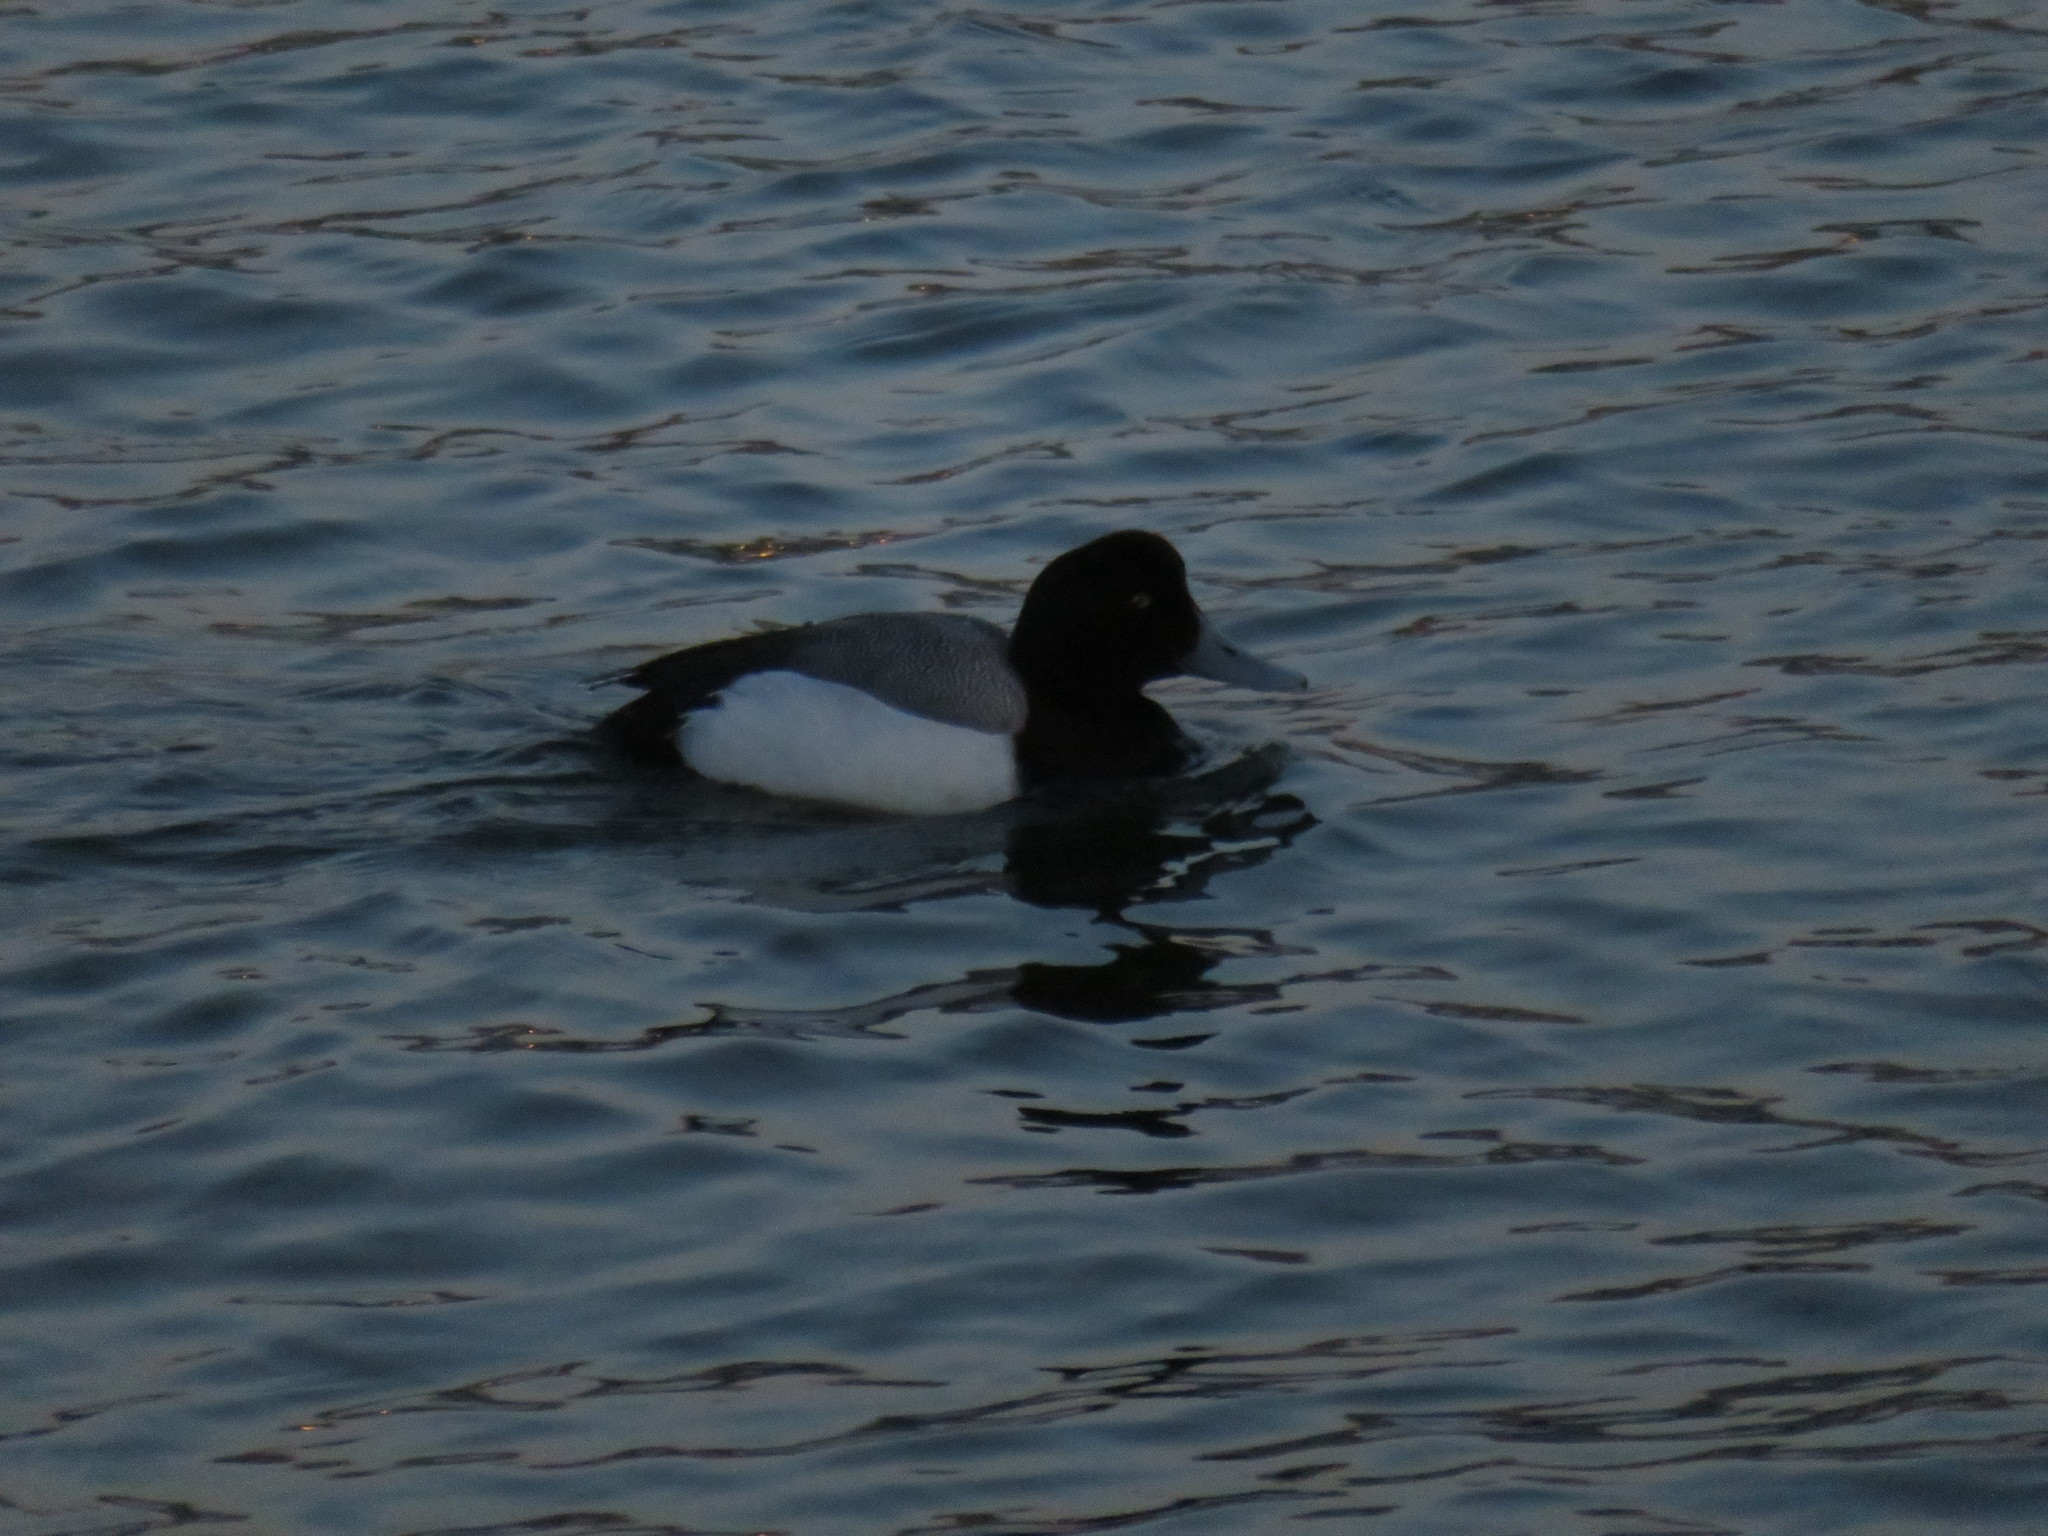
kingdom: Animalia
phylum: Chordata
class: Aves
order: Anseriformes
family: Anatidae
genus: Aythya
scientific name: Aythya marila
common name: Greater scaup
